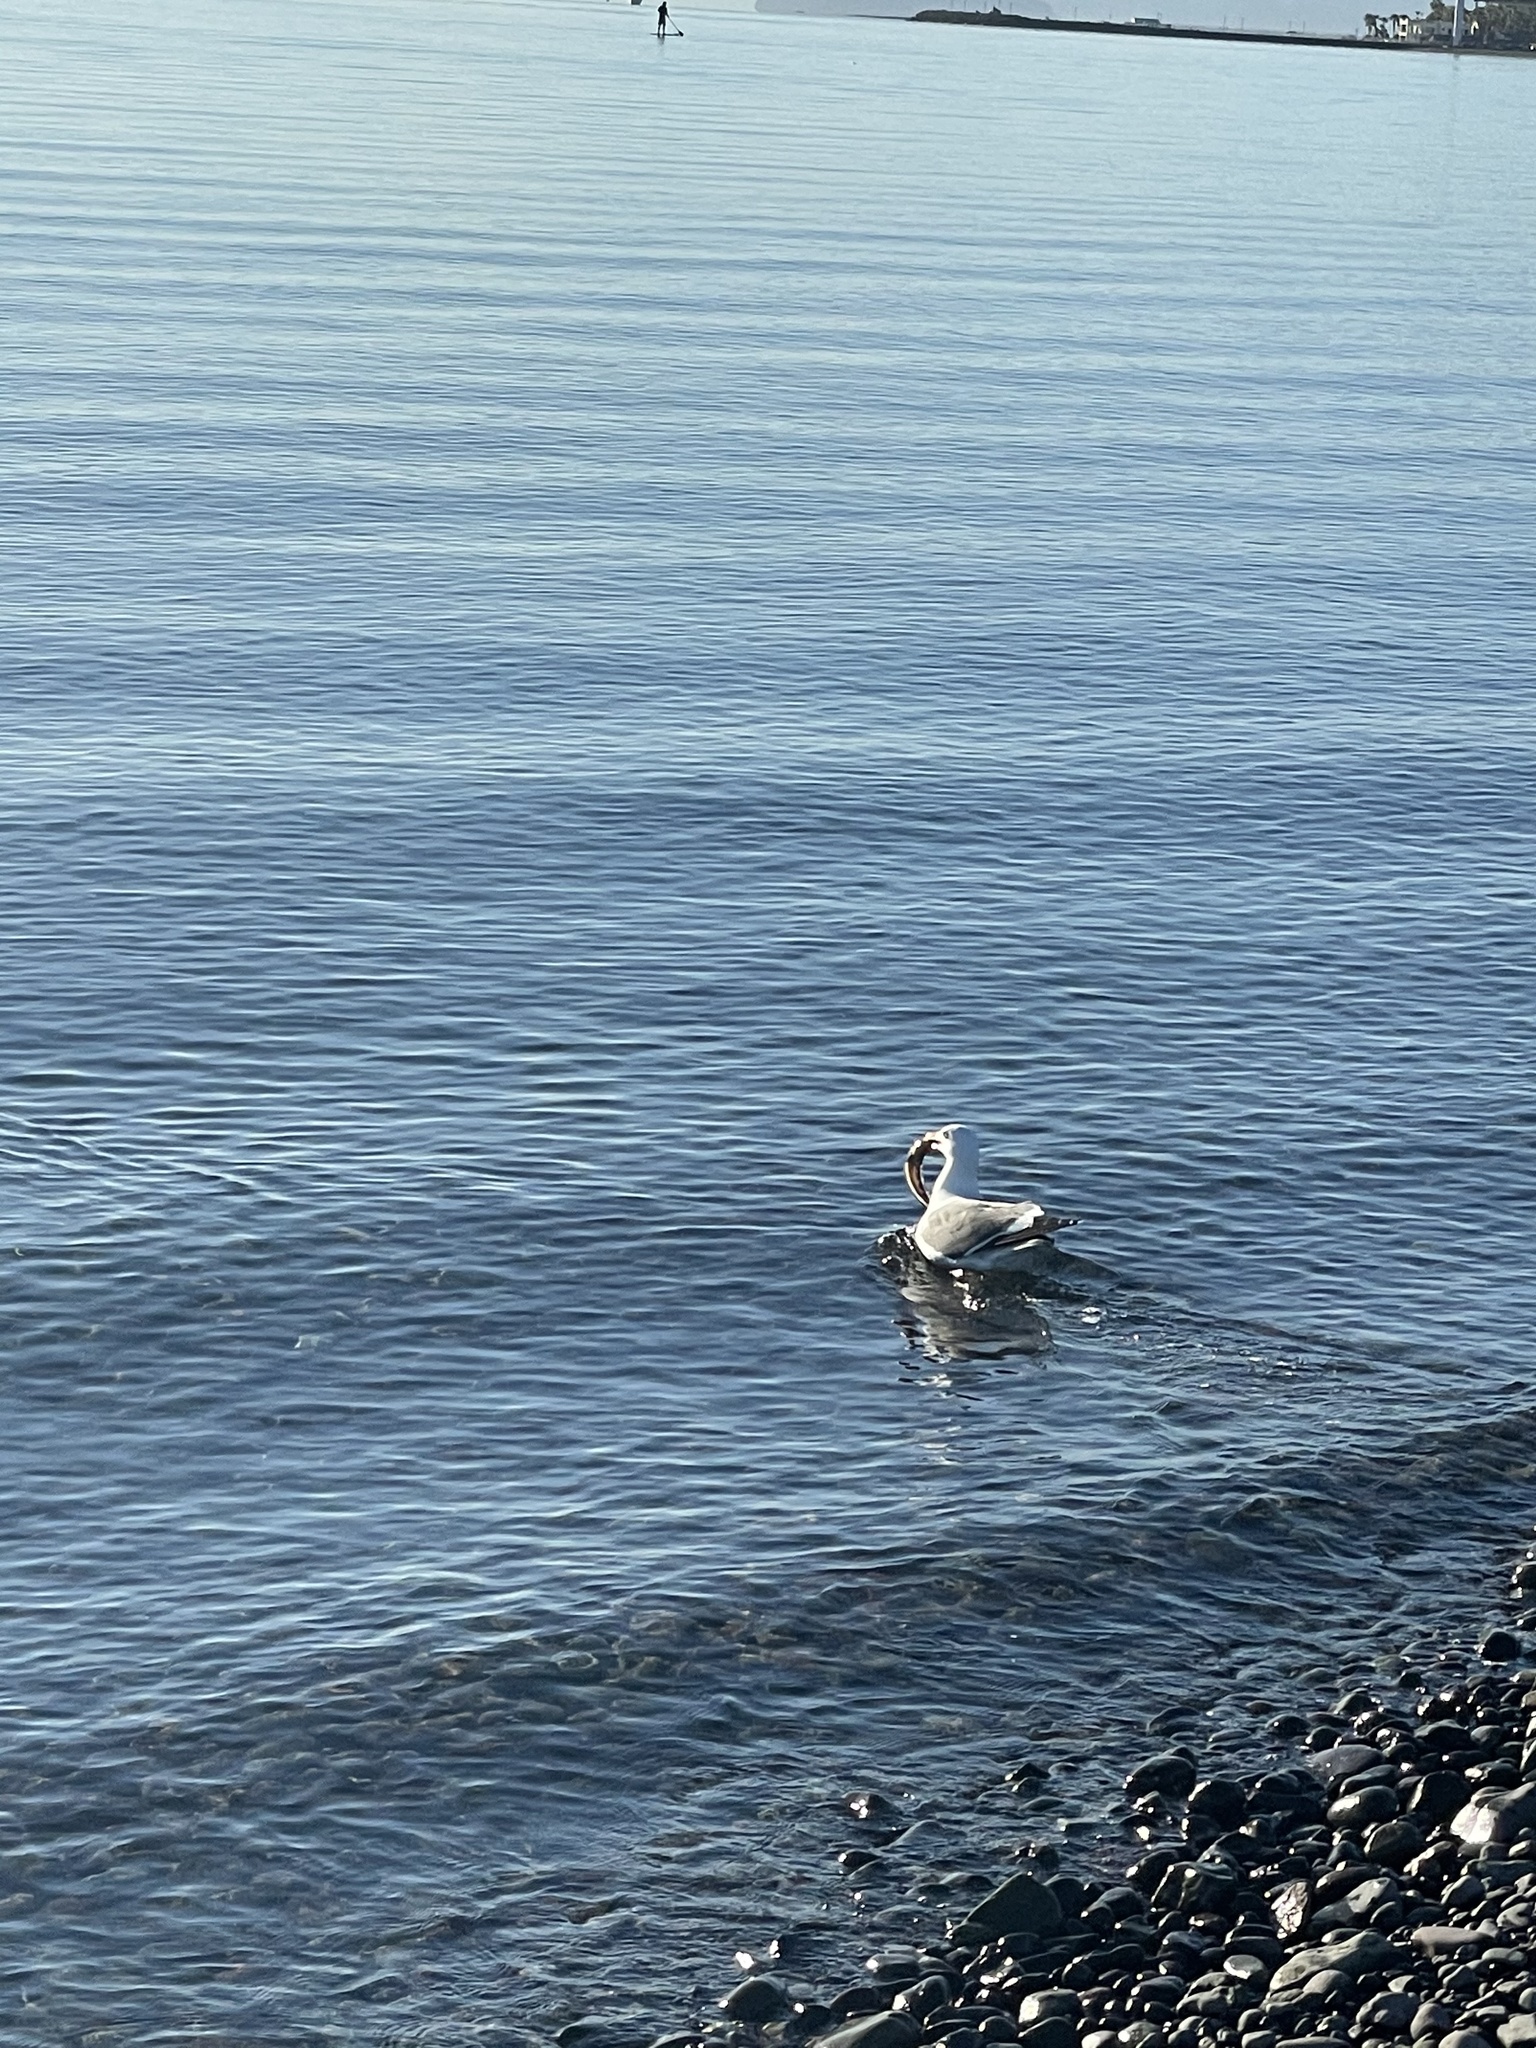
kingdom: Animalia
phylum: Chordata
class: Aves
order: Charadriiformes
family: Laridae
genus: Larus
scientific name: Larus livens
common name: Yellow-footed gull
